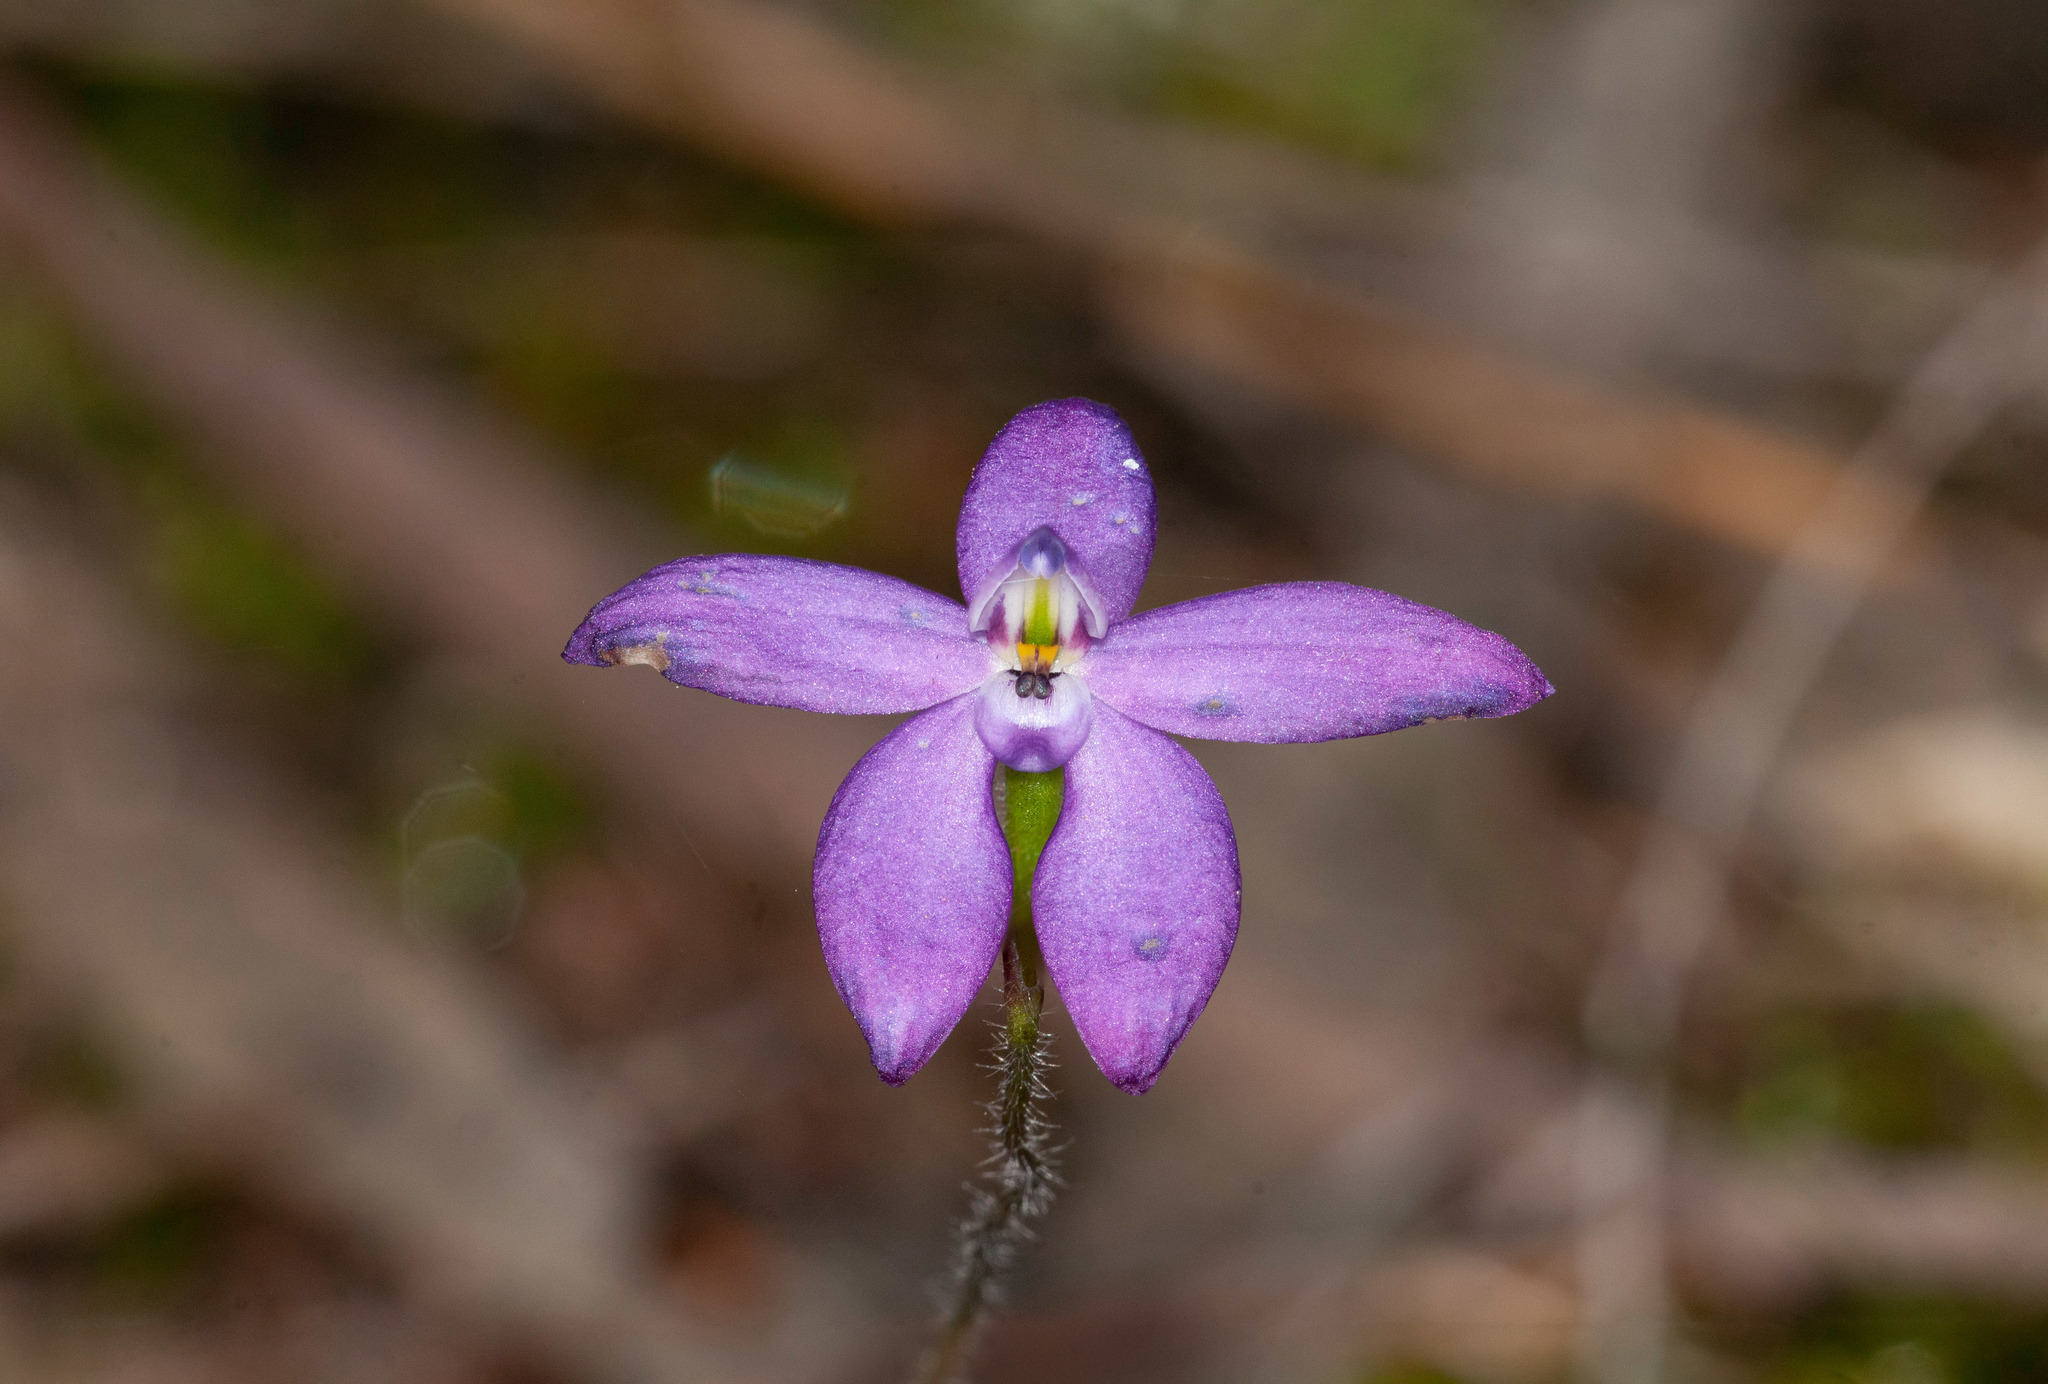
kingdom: Plantae
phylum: Tracheophyta
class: Liliopsida
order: Asparagales
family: Orchidaceae
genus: Caladenia
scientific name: Caladenia minorata
